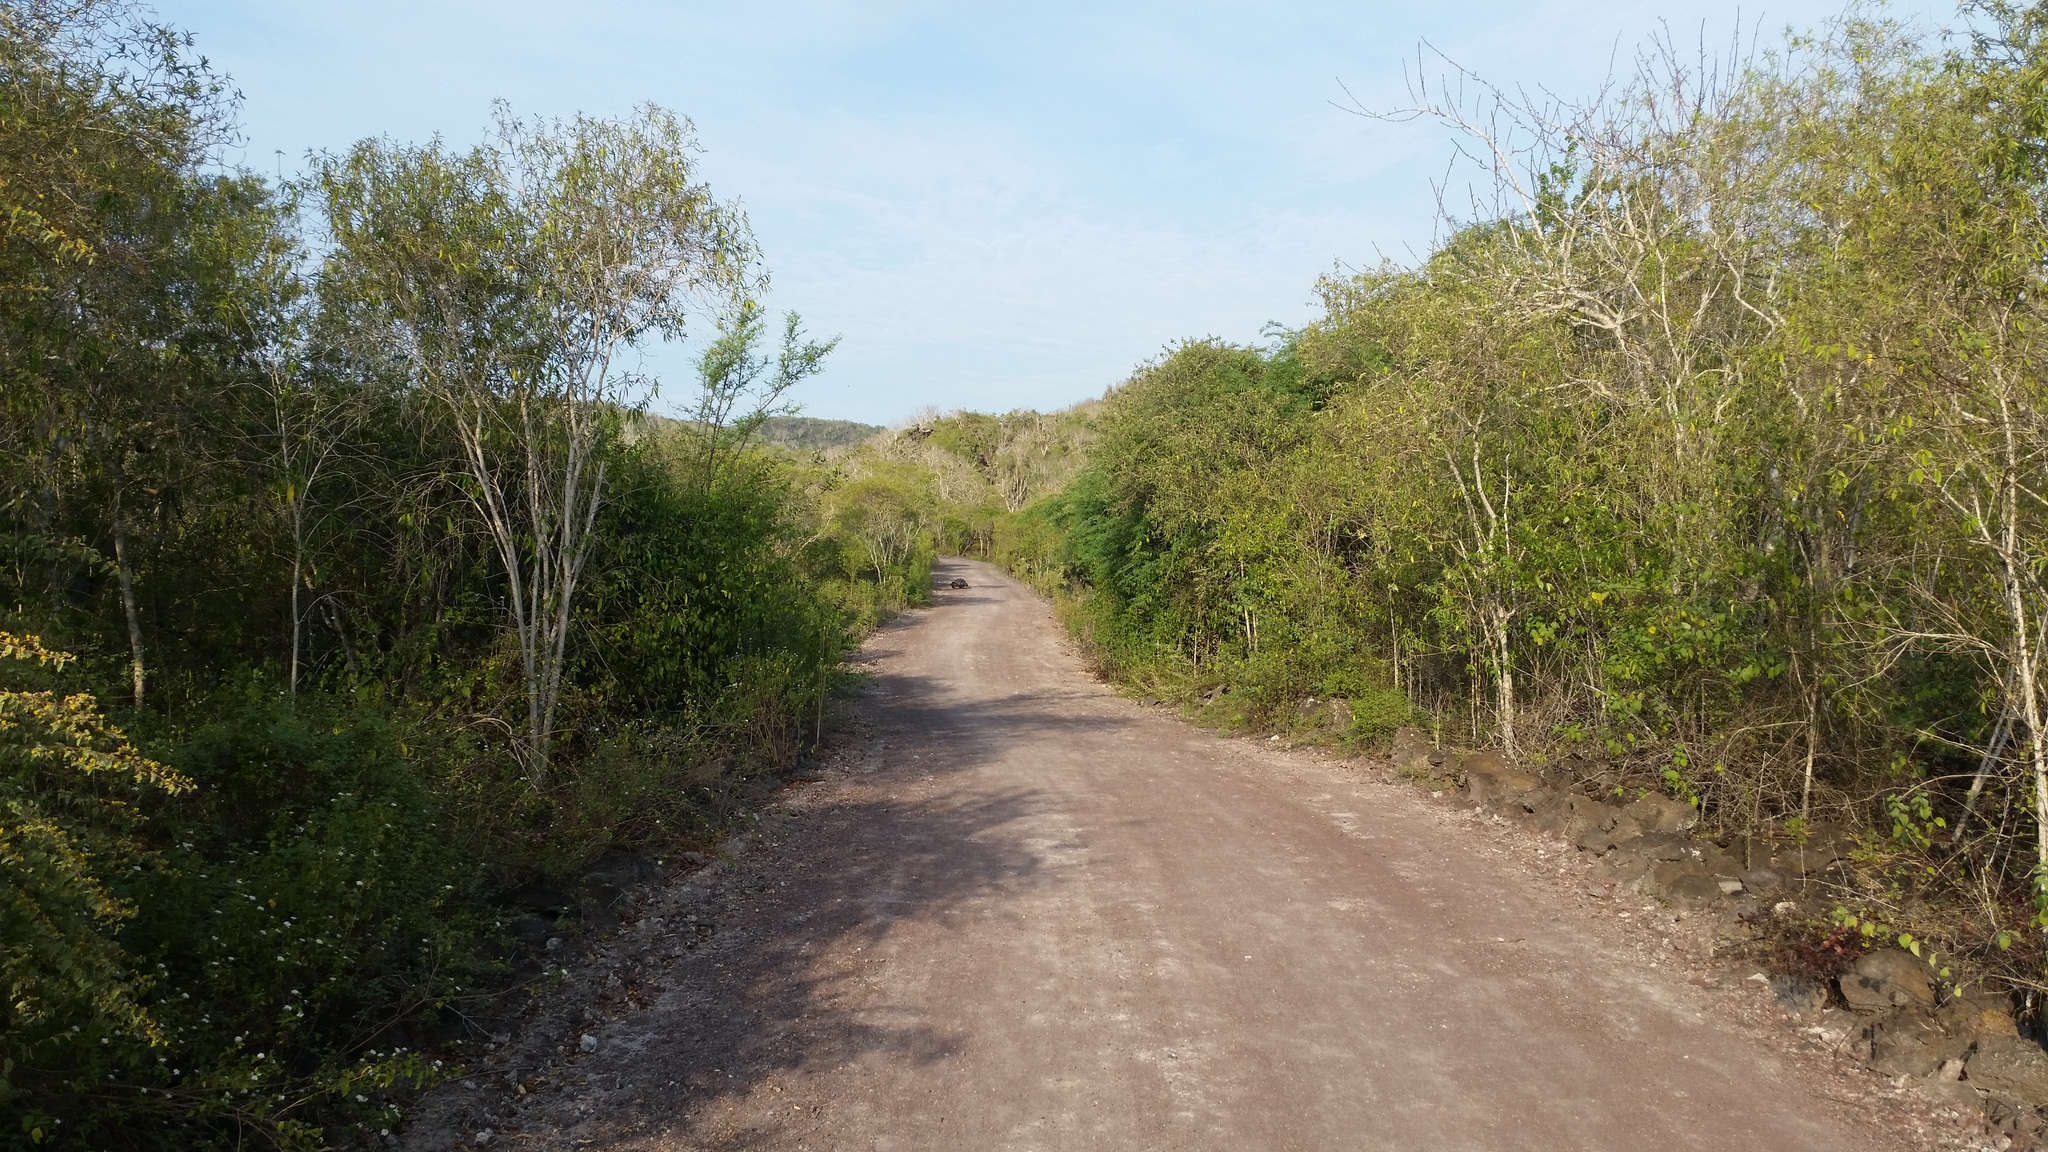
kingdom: Animalia
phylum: Chordata
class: Testudines
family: Testudinidae
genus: Chelonoidis
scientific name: Chelonoidis guntheri
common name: Sierra negra giant tortoise
